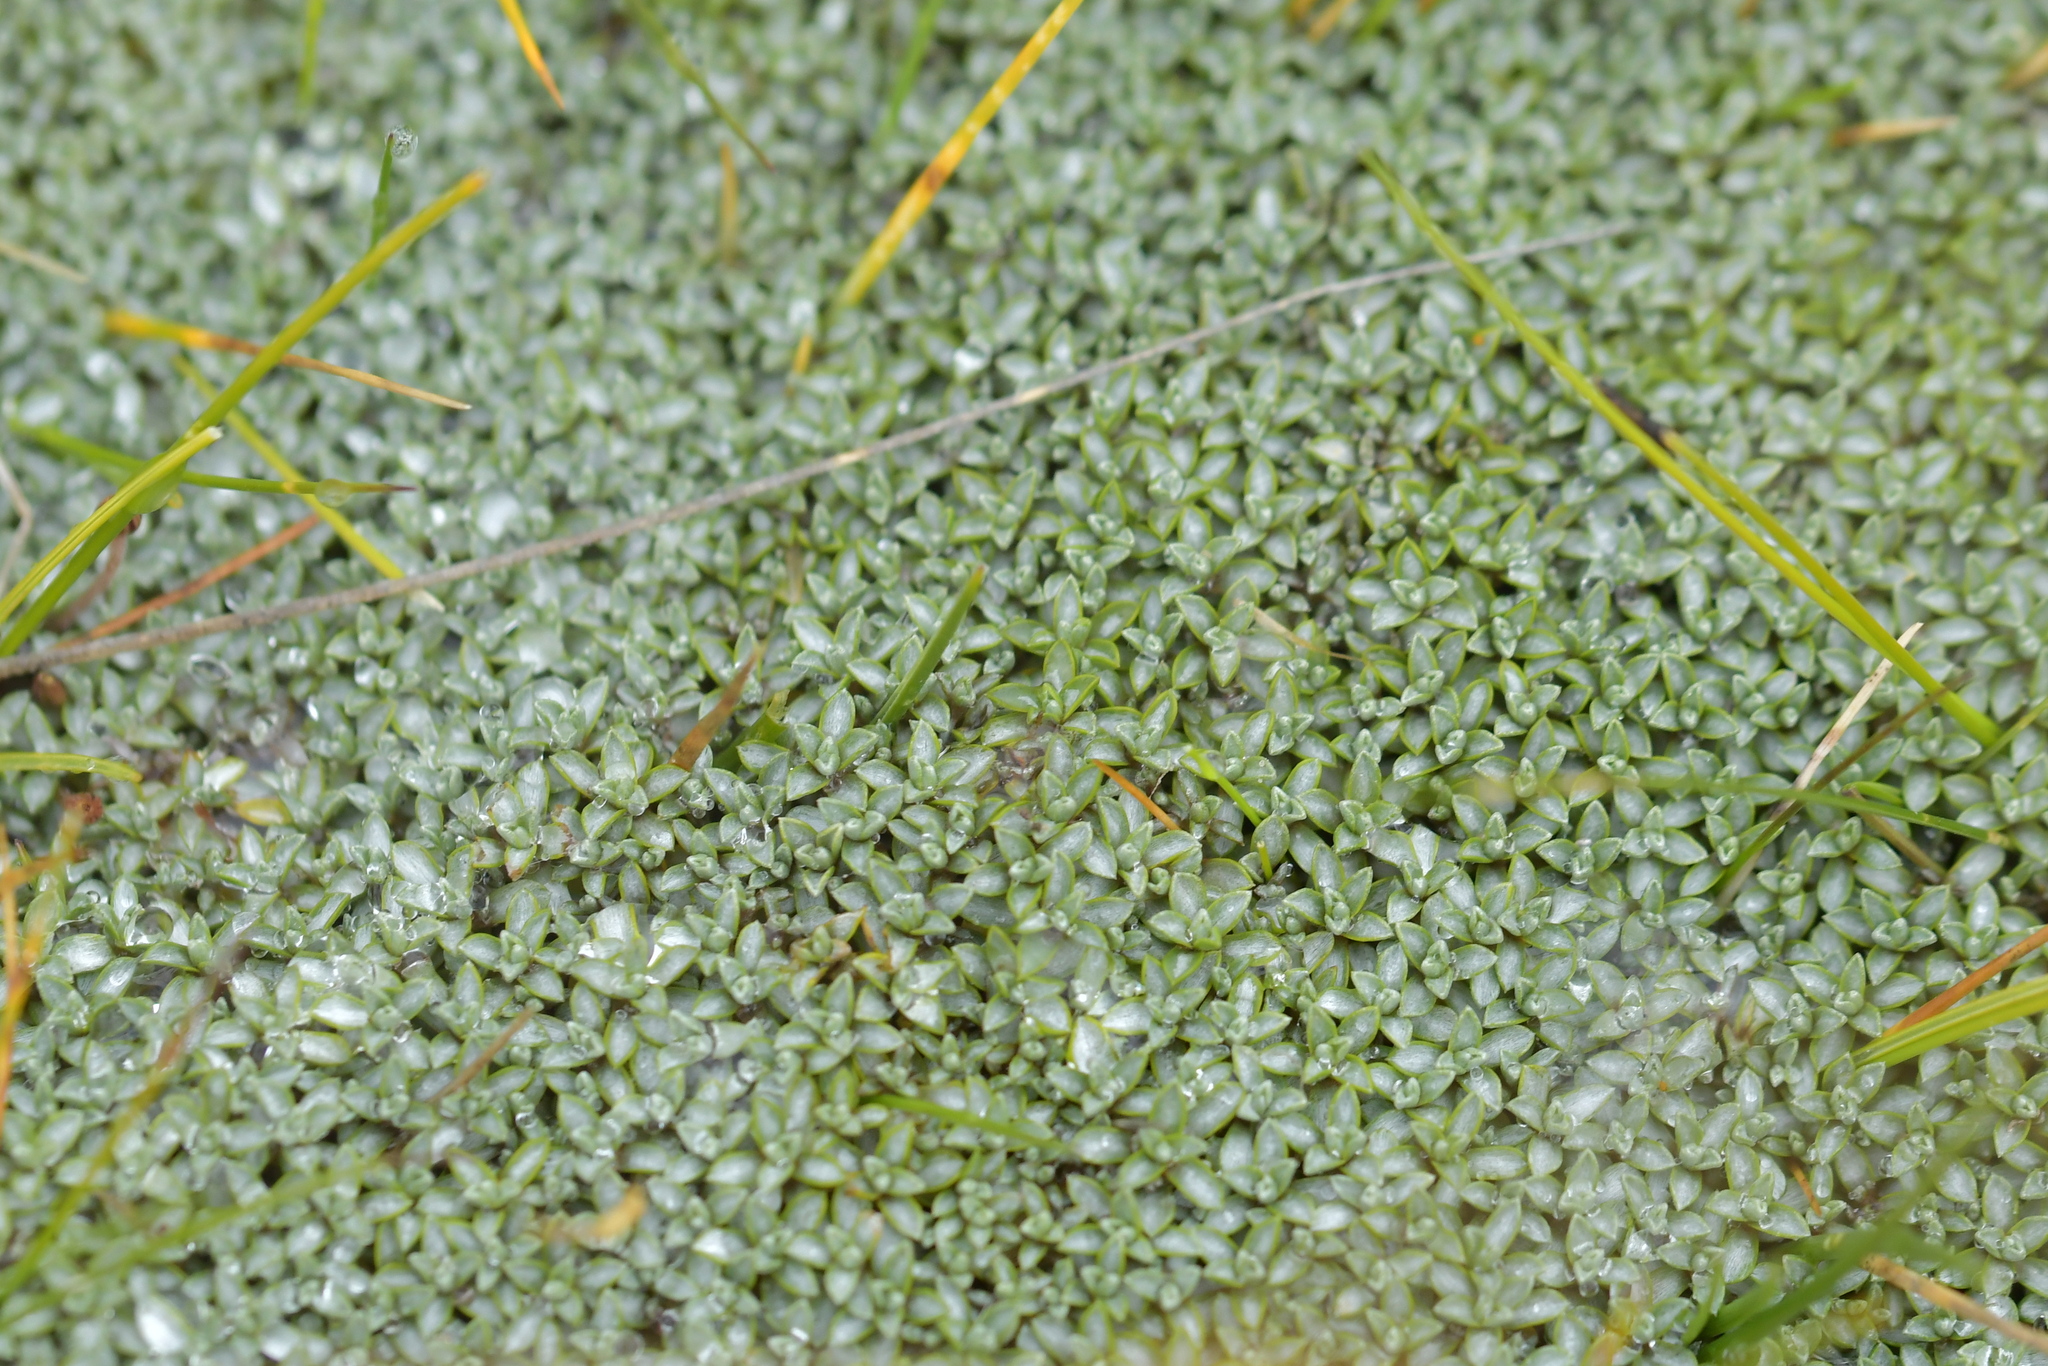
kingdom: Plantae
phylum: Tracheophyta
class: Magnoliopsida
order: Asterales
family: Asteraceae
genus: Raoulia
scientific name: Raoulia tenuicaulis
